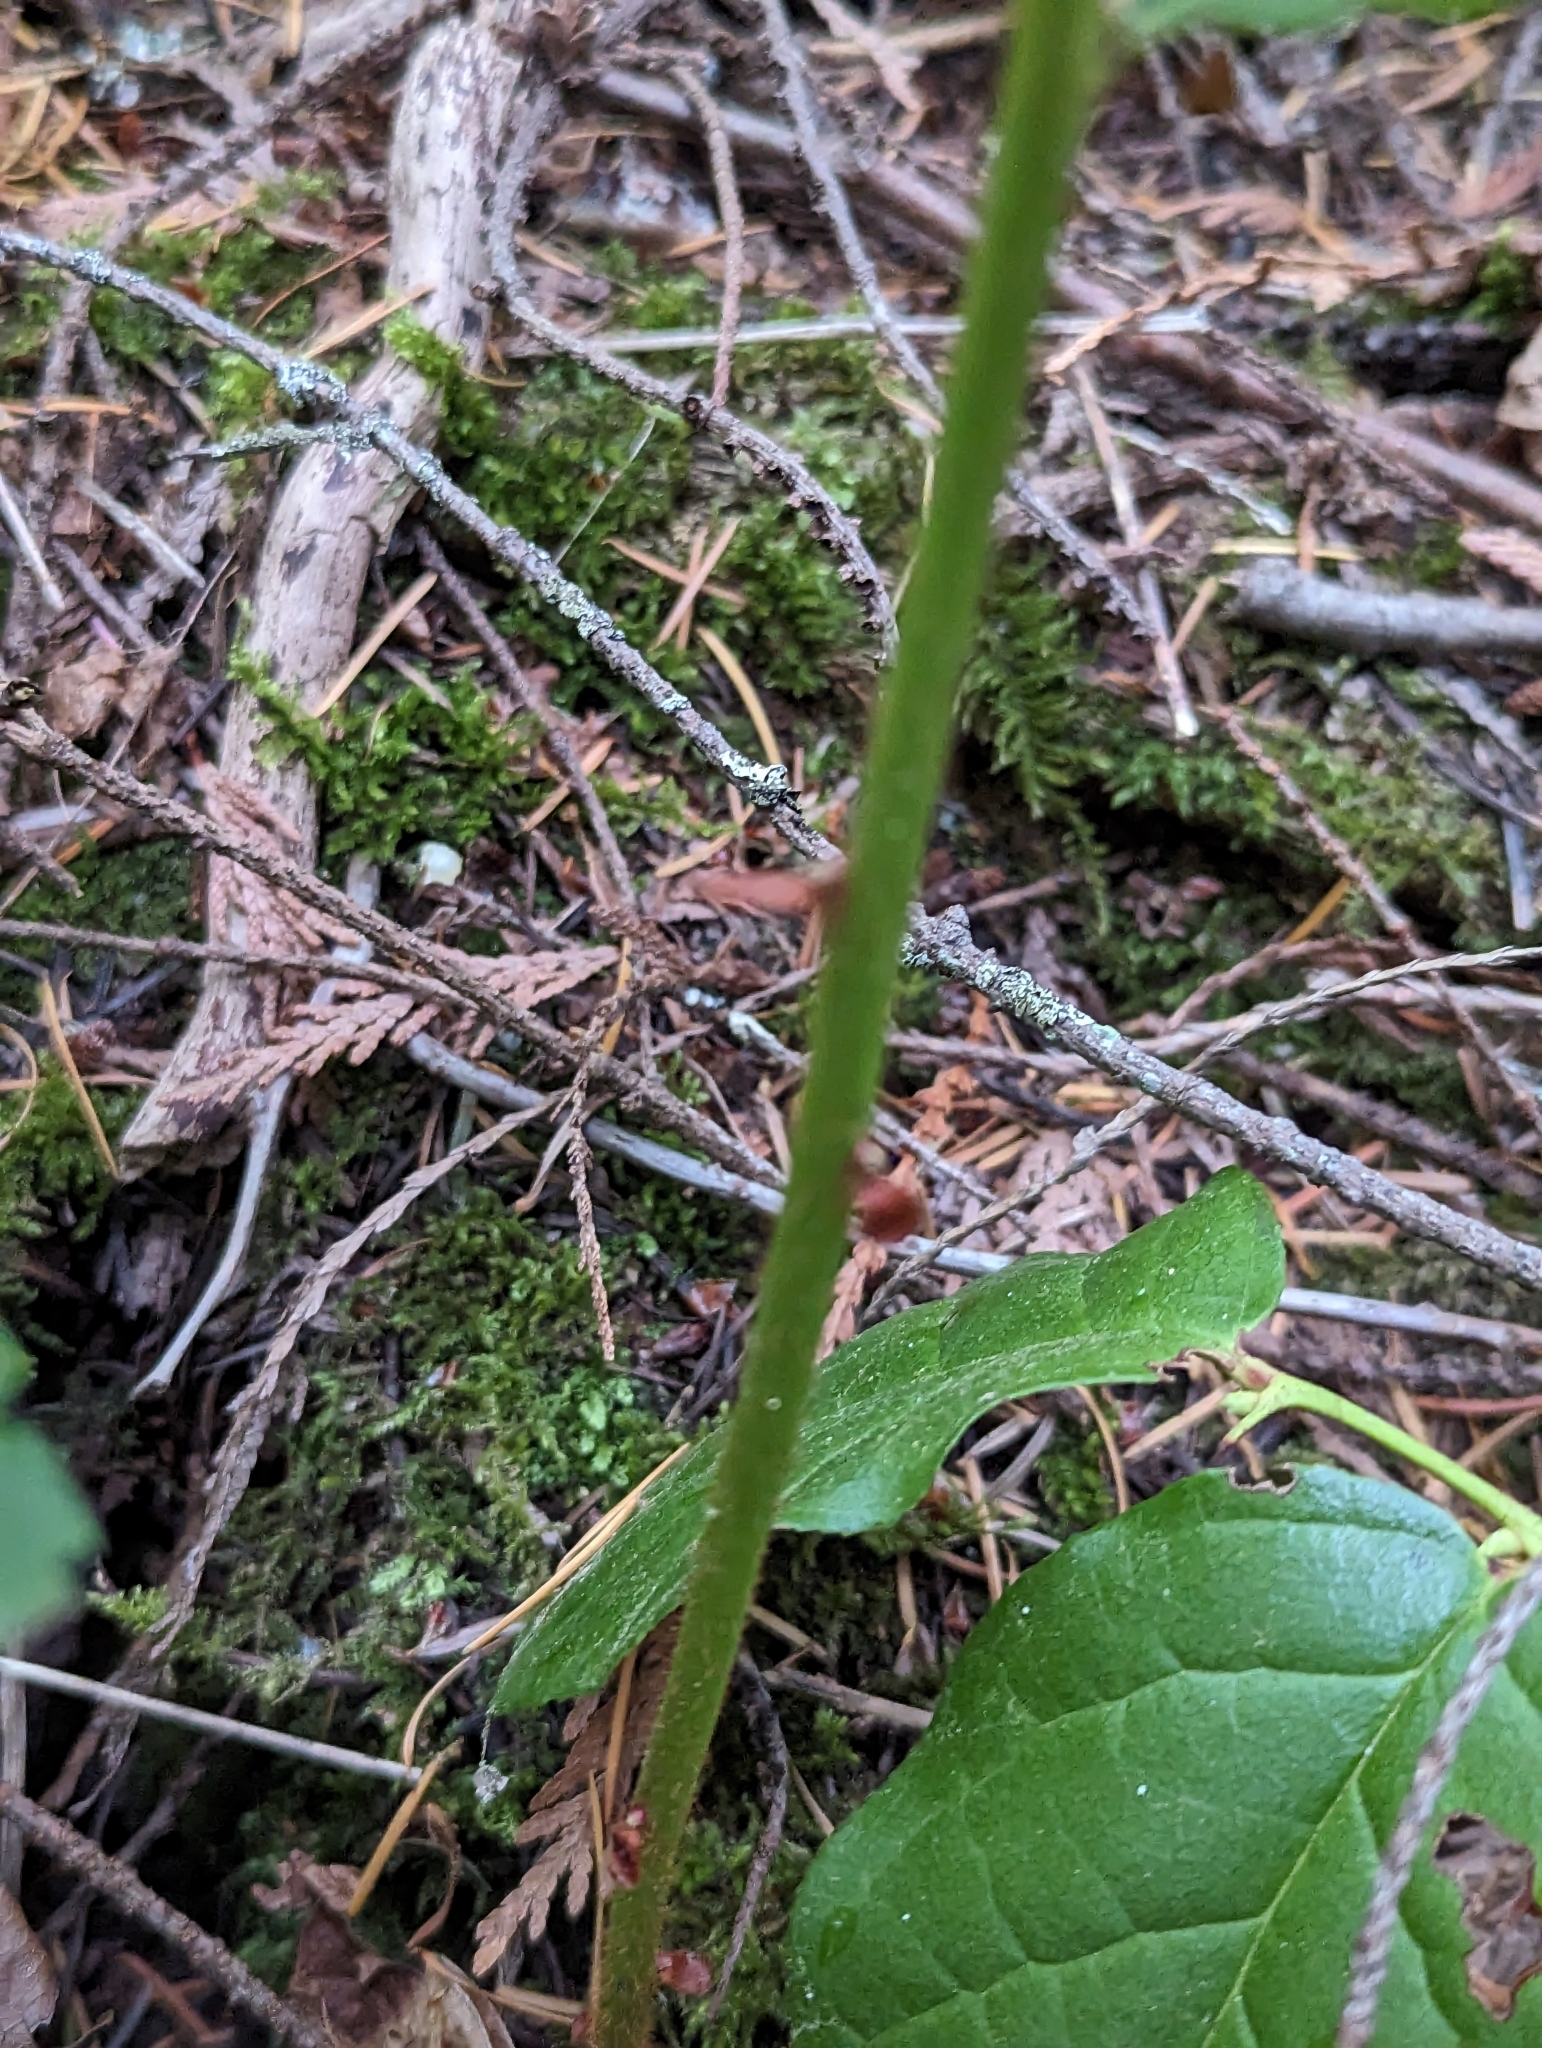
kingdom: Plantae
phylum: Tracheophyta
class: Magnoliopsida
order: Ericales
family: Ericaceae
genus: Gaultheria
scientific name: Gaultheria shallon
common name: Shallon
